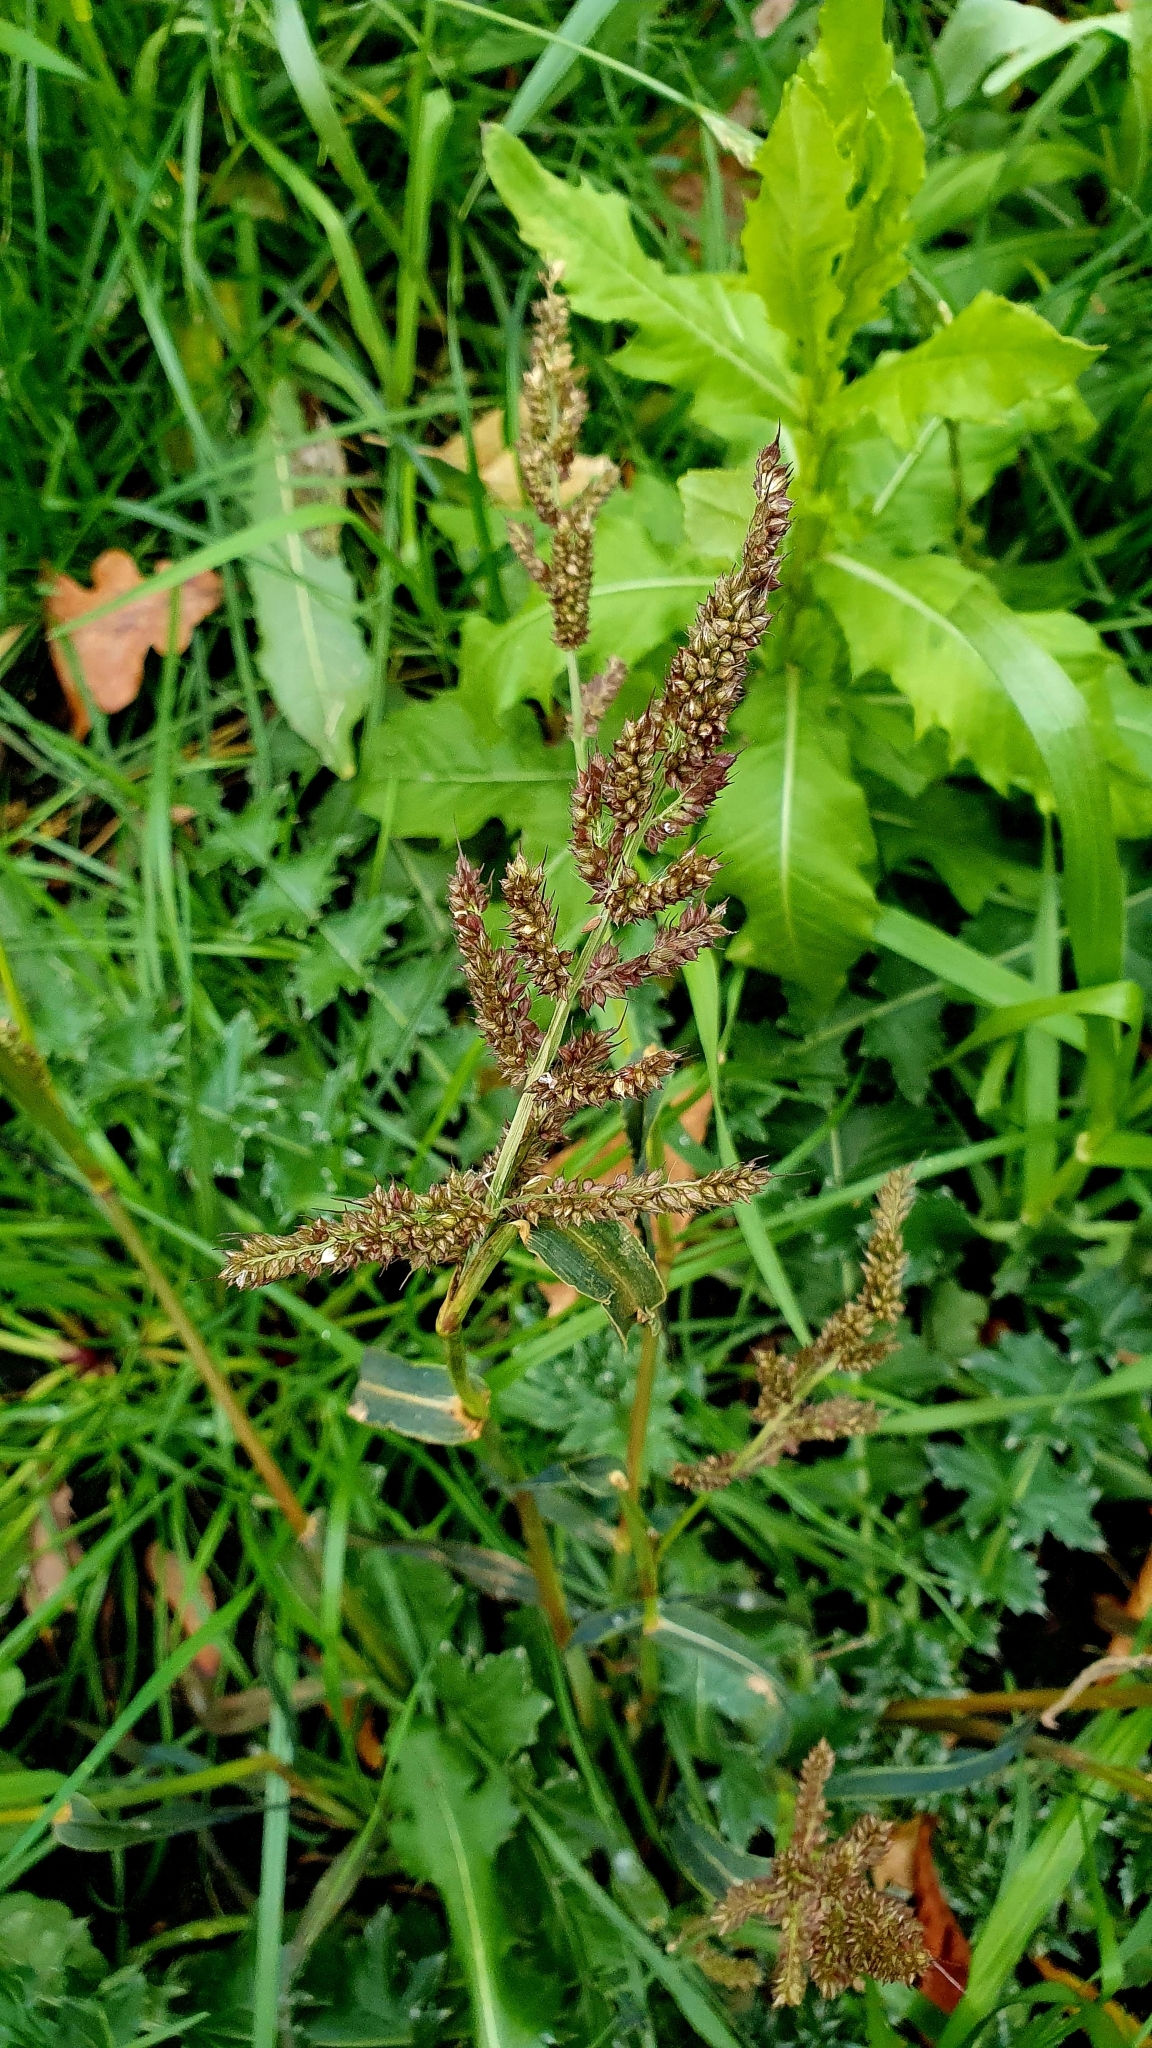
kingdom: Plantae
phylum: Tracheophyta
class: Liliopsida
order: Poales
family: Poaceae
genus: Echinochloa
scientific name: Echinochloa crus-galli
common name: Cockspur
